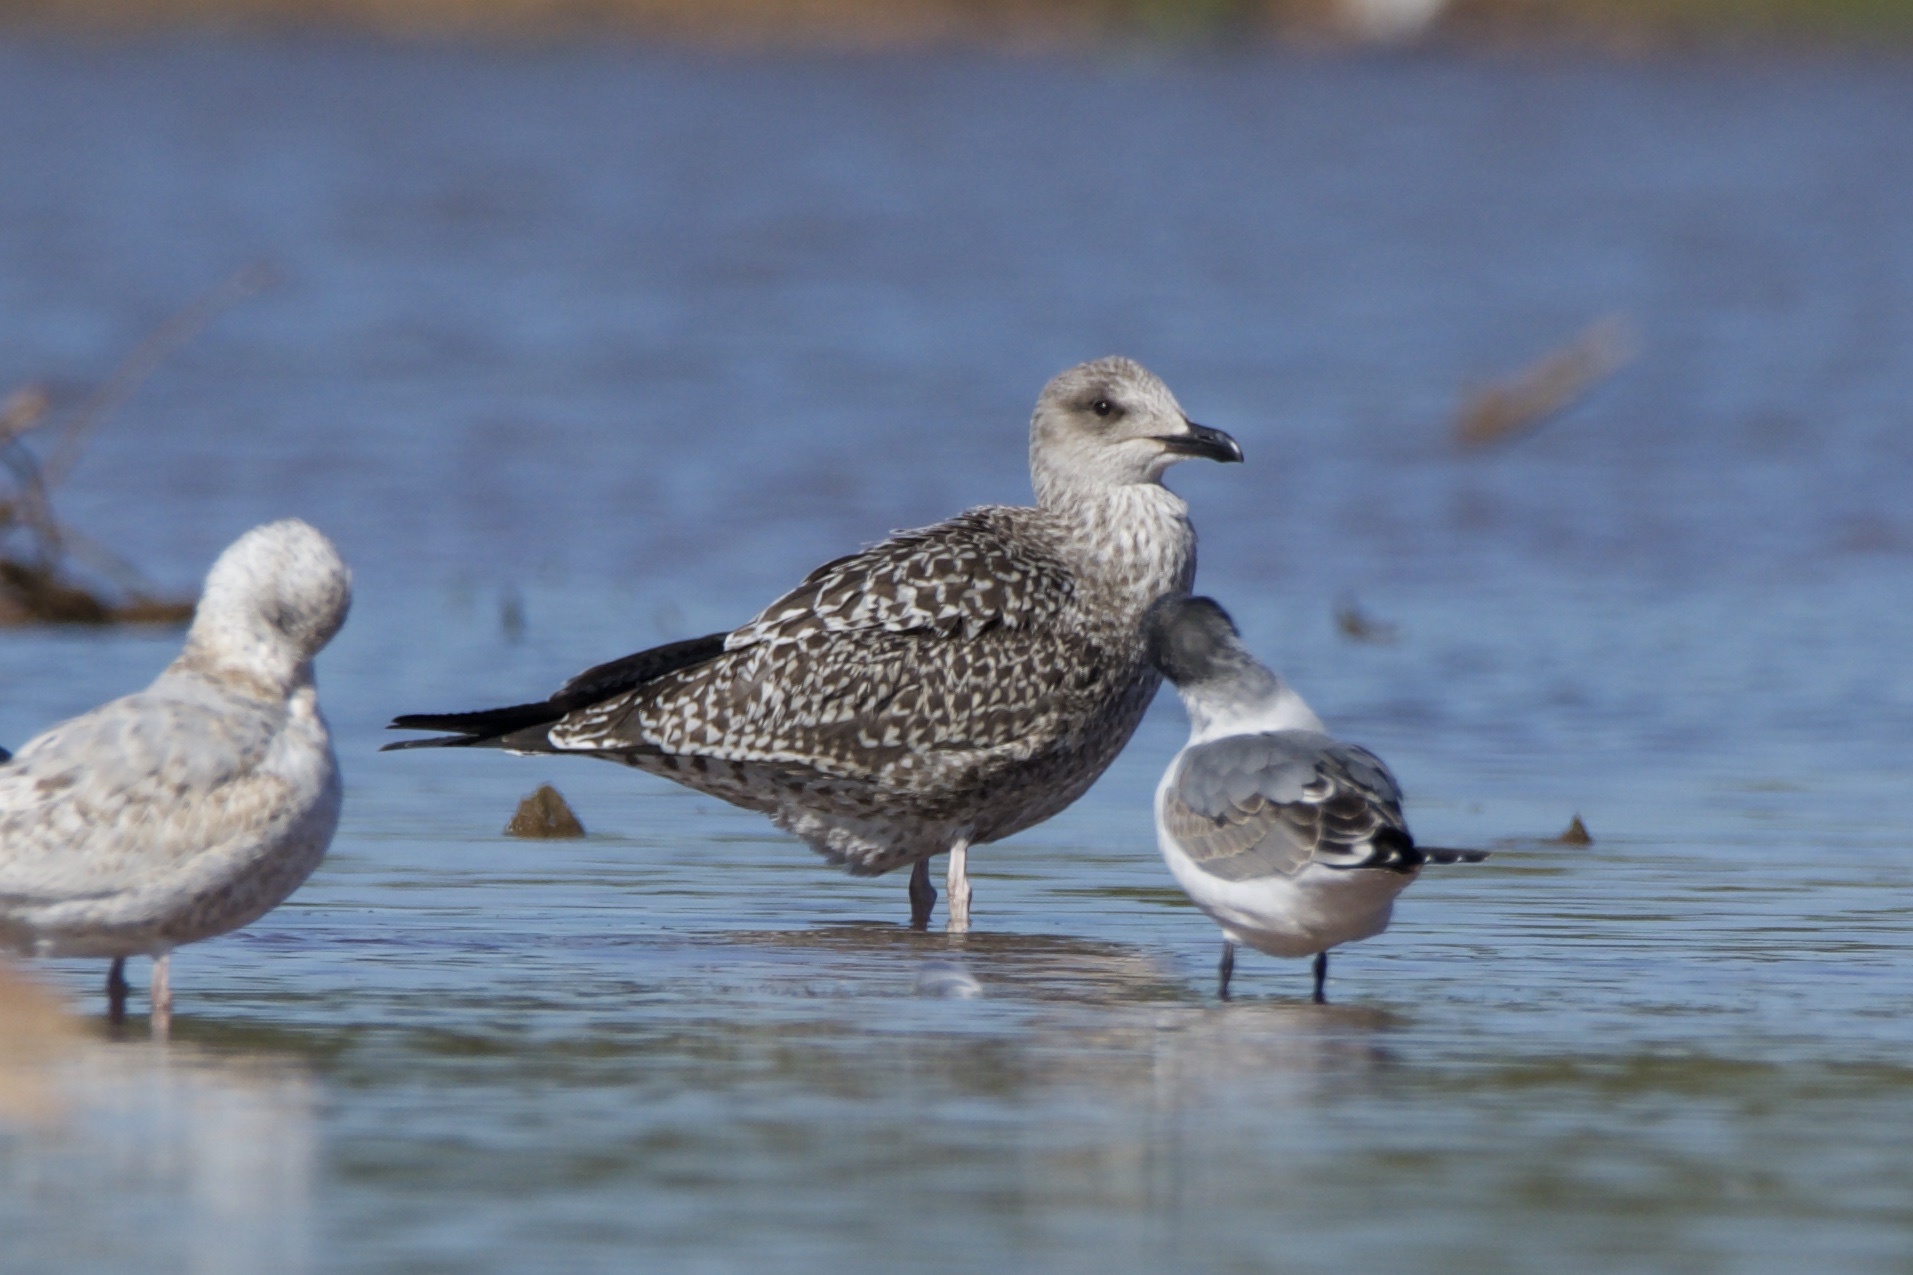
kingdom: Animalia
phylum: Chordata
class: Aves
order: Charadriiformes
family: Laridae
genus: Larus
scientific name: Larus fuscus
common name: Lesser black-backed gull
